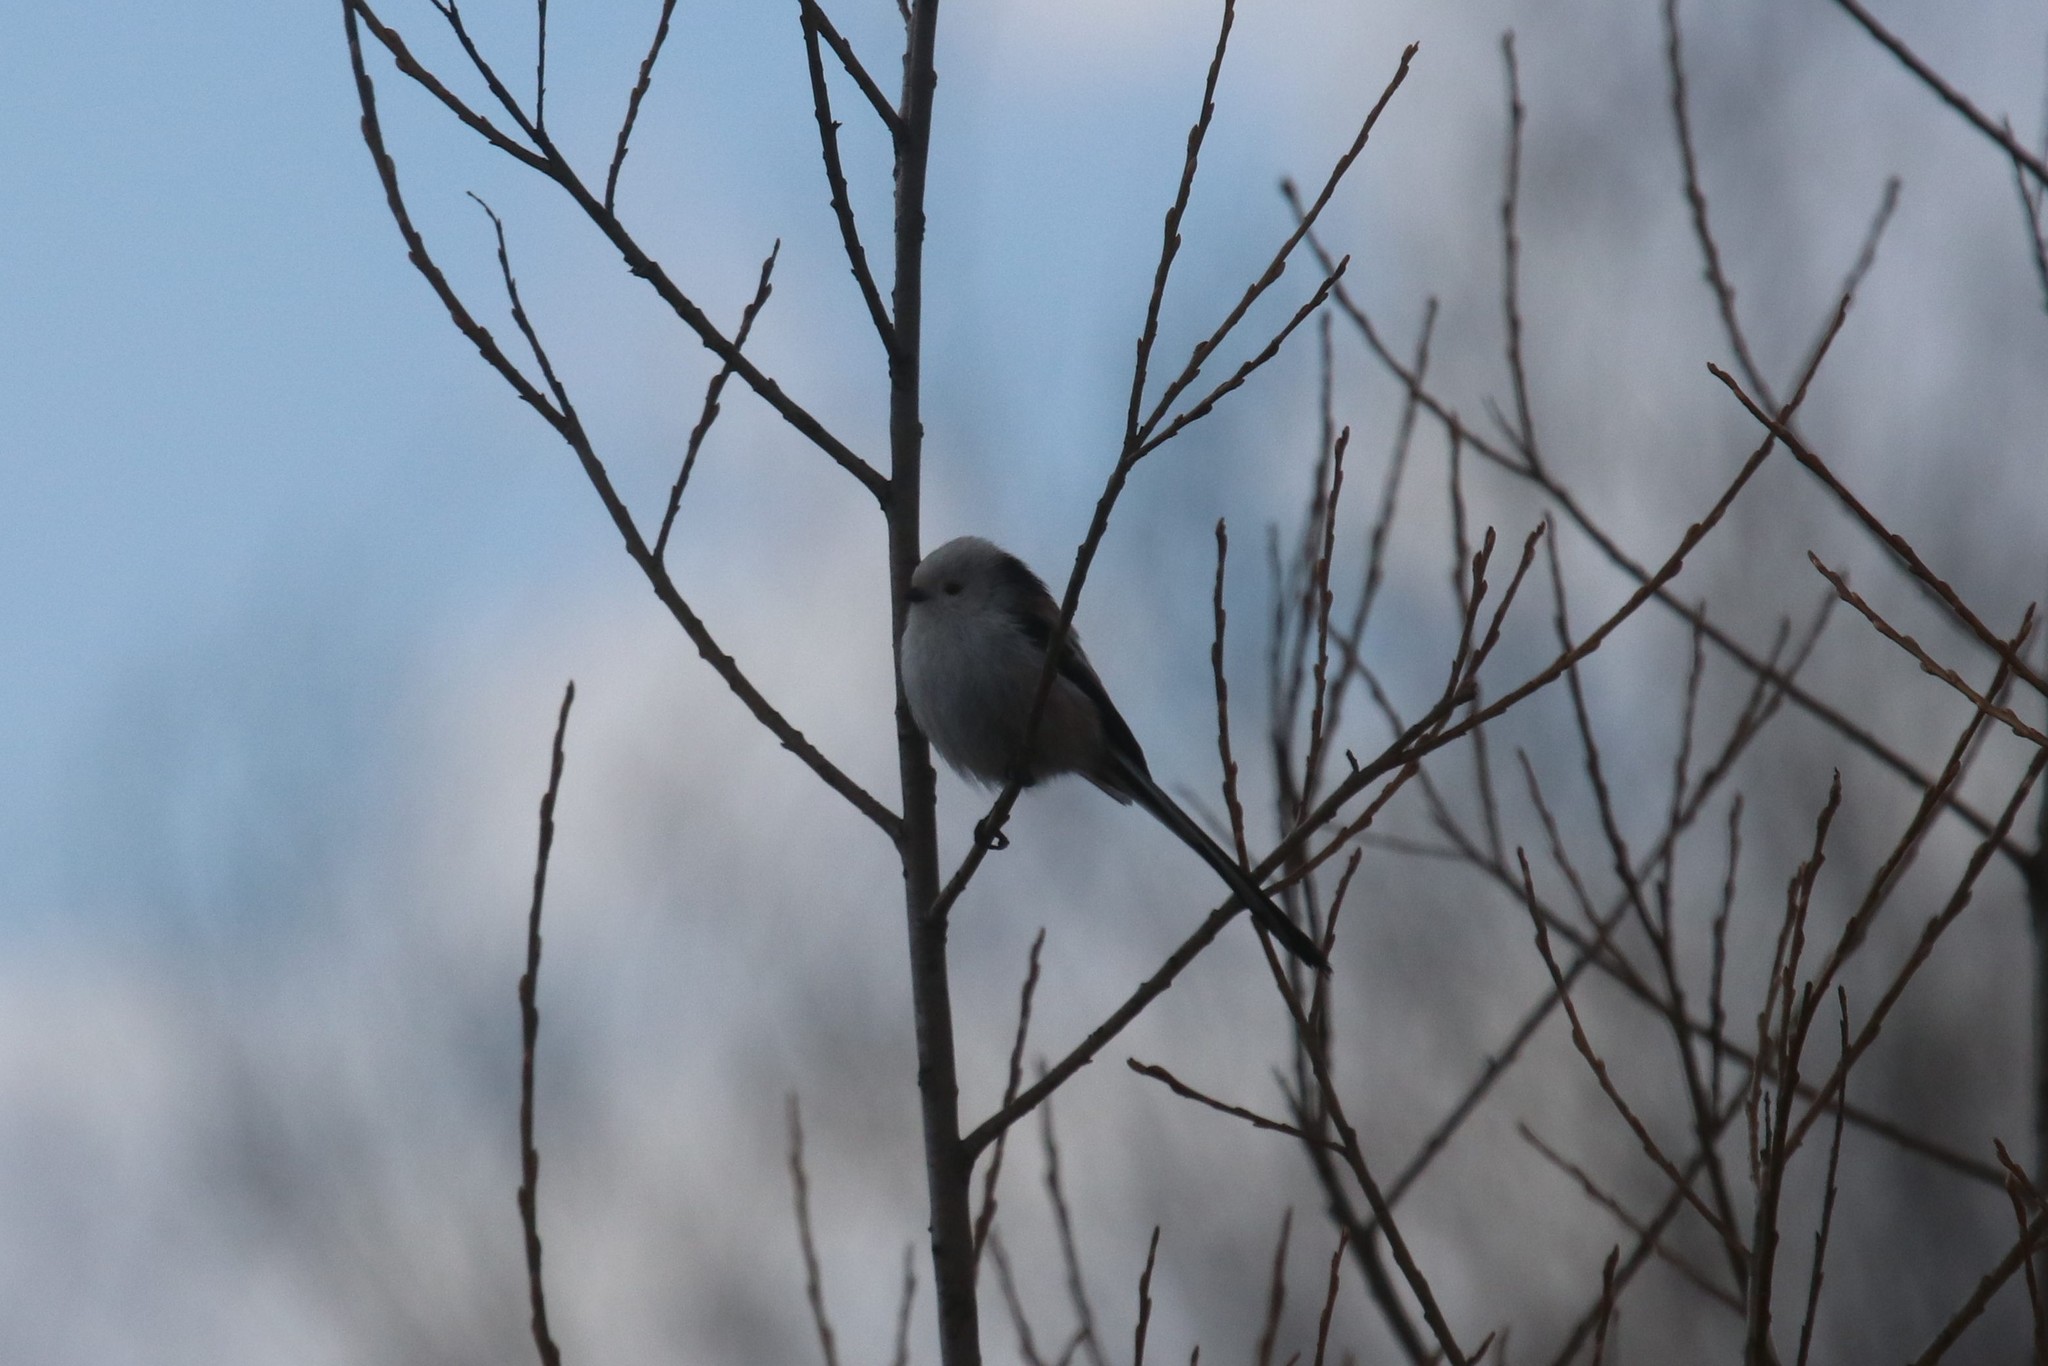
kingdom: Animalia
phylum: Chordata
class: Aves
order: Passeriformes
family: Aegithalidae
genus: Aegithalos
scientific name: Aegithalos caudatus
